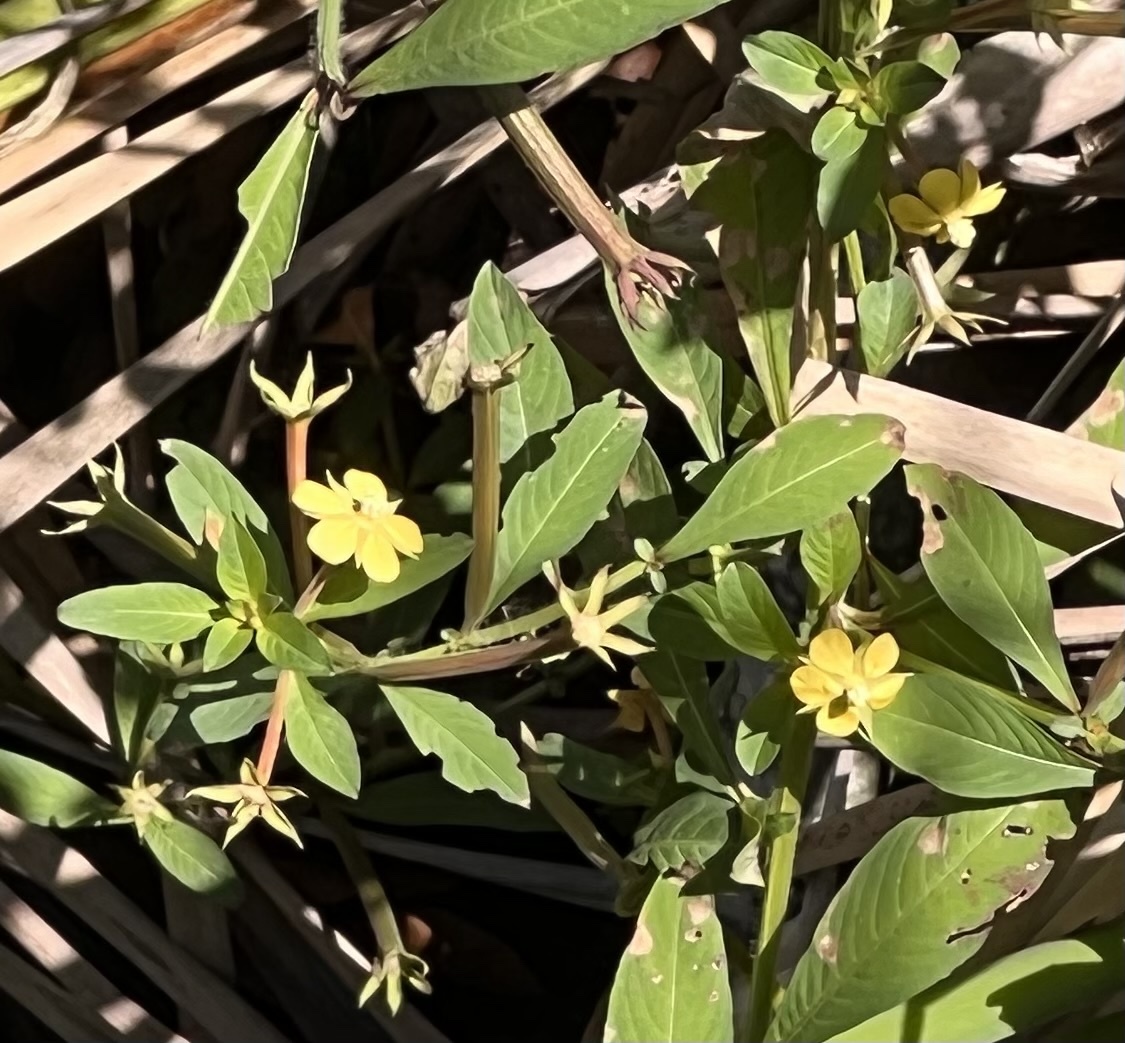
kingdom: Plantae
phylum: Tracheophyta
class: Magnoliopsida
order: Myrtales
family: Onagraceae
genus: Ludwigia
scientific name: Ludwigia leptocarpa
